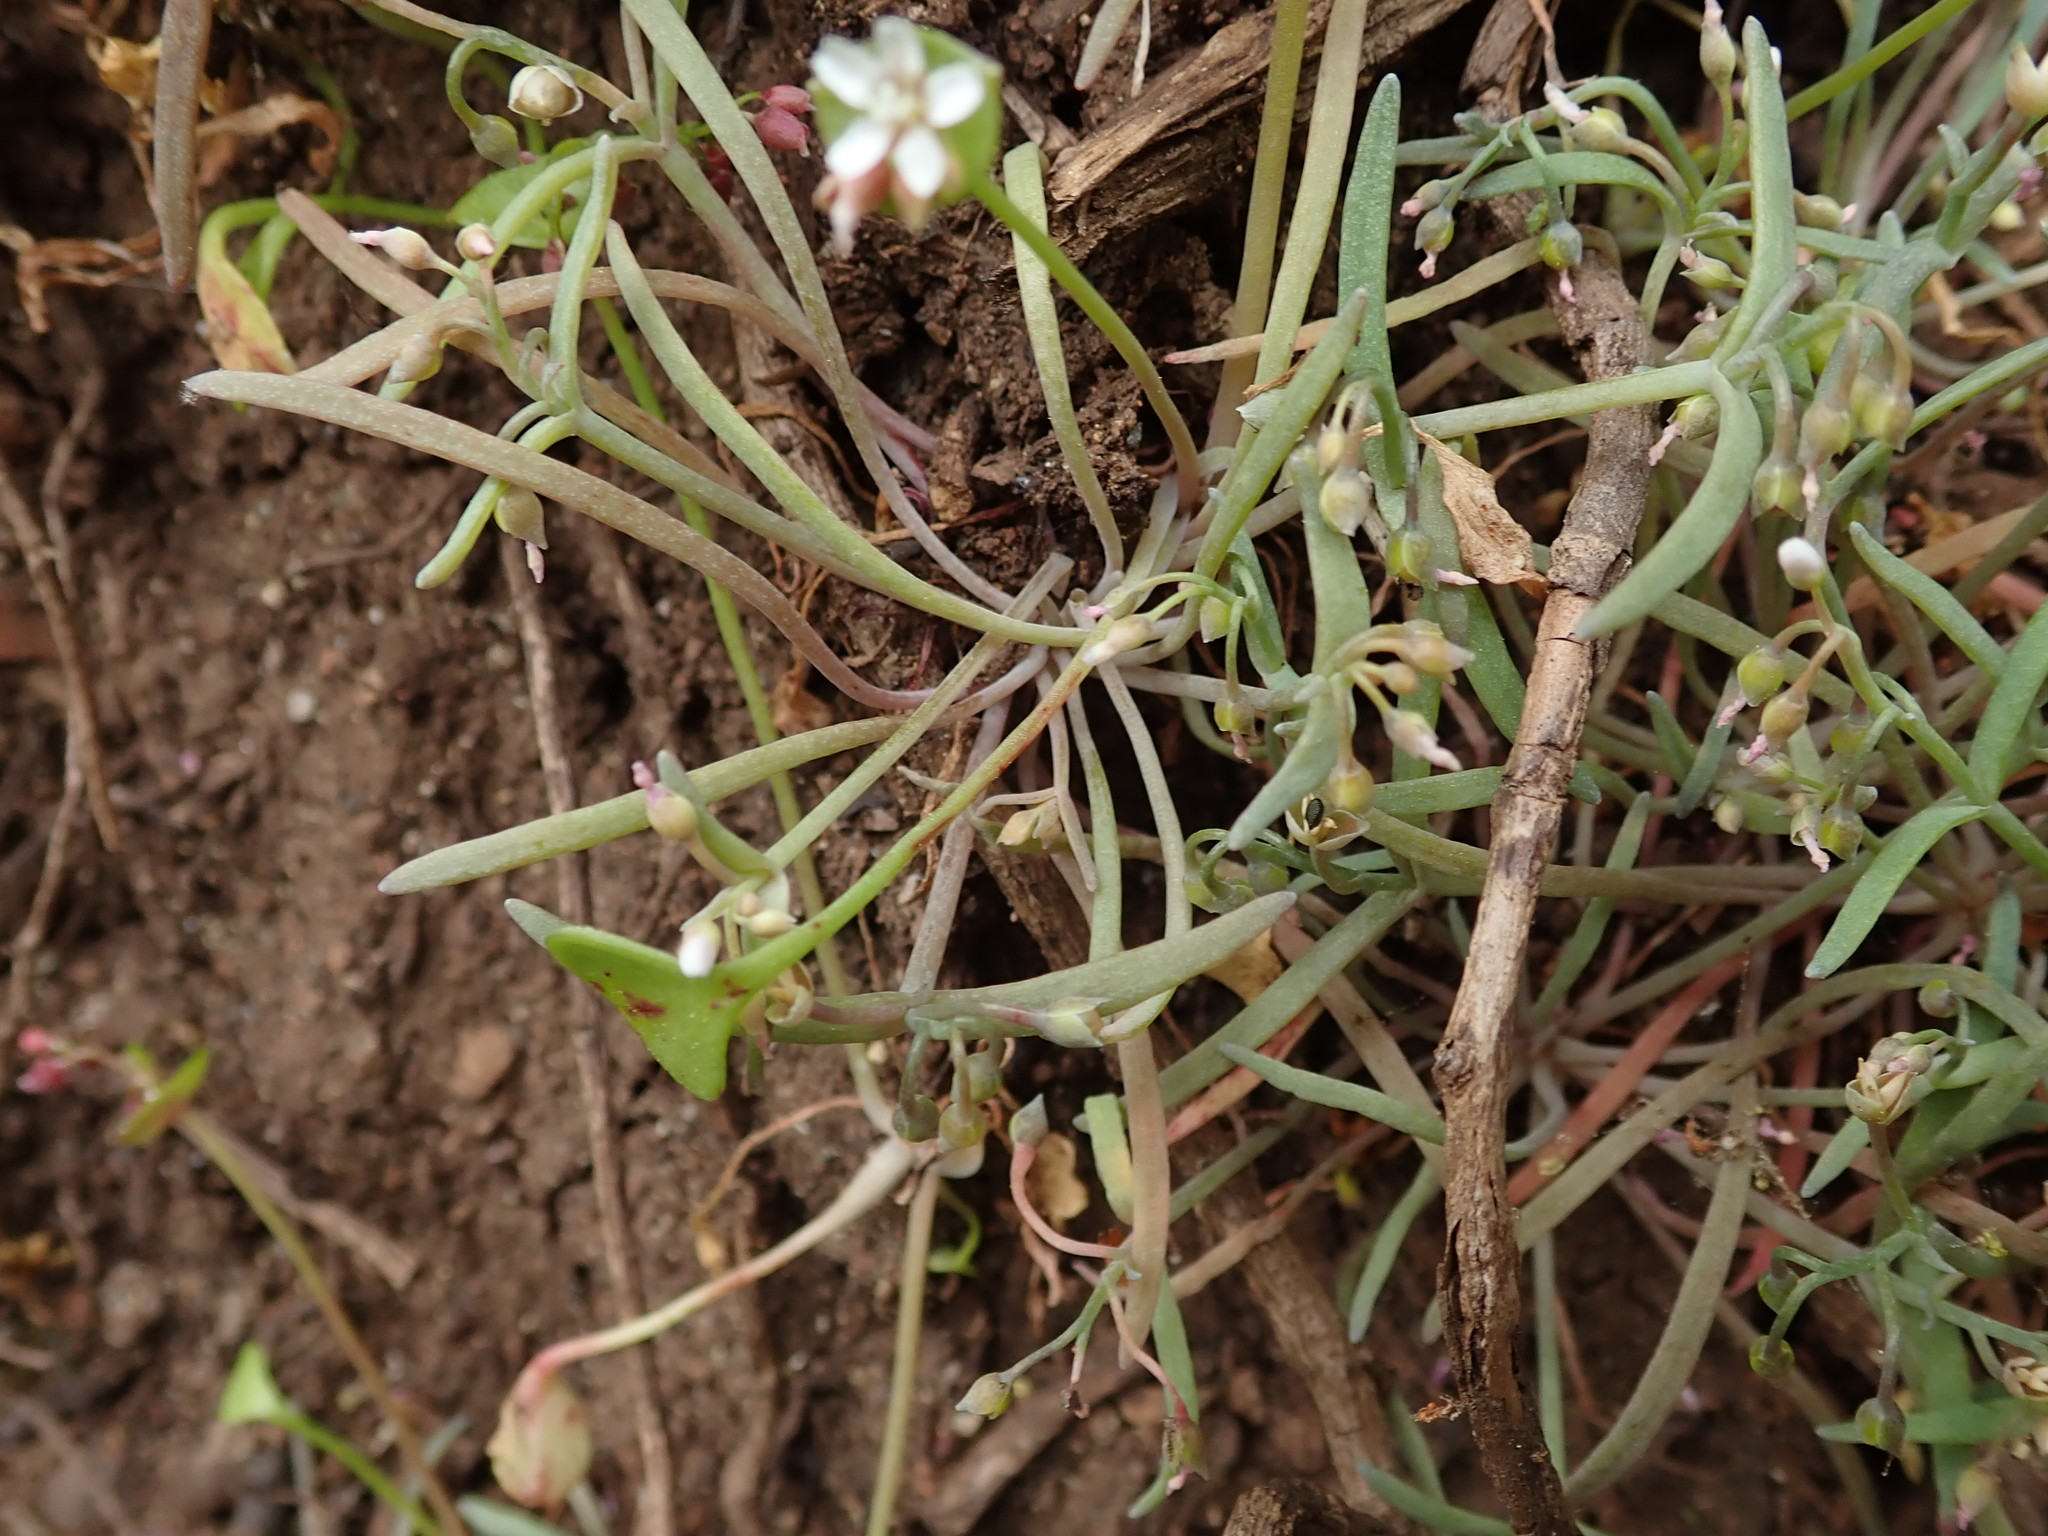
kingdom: Plantae
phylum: Tracheophyta
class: Magnoliopsida
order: Caryophyllales
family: Montiaceae
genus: Claytonia
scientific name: Claytonia exigua
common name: Pale spring beauty
